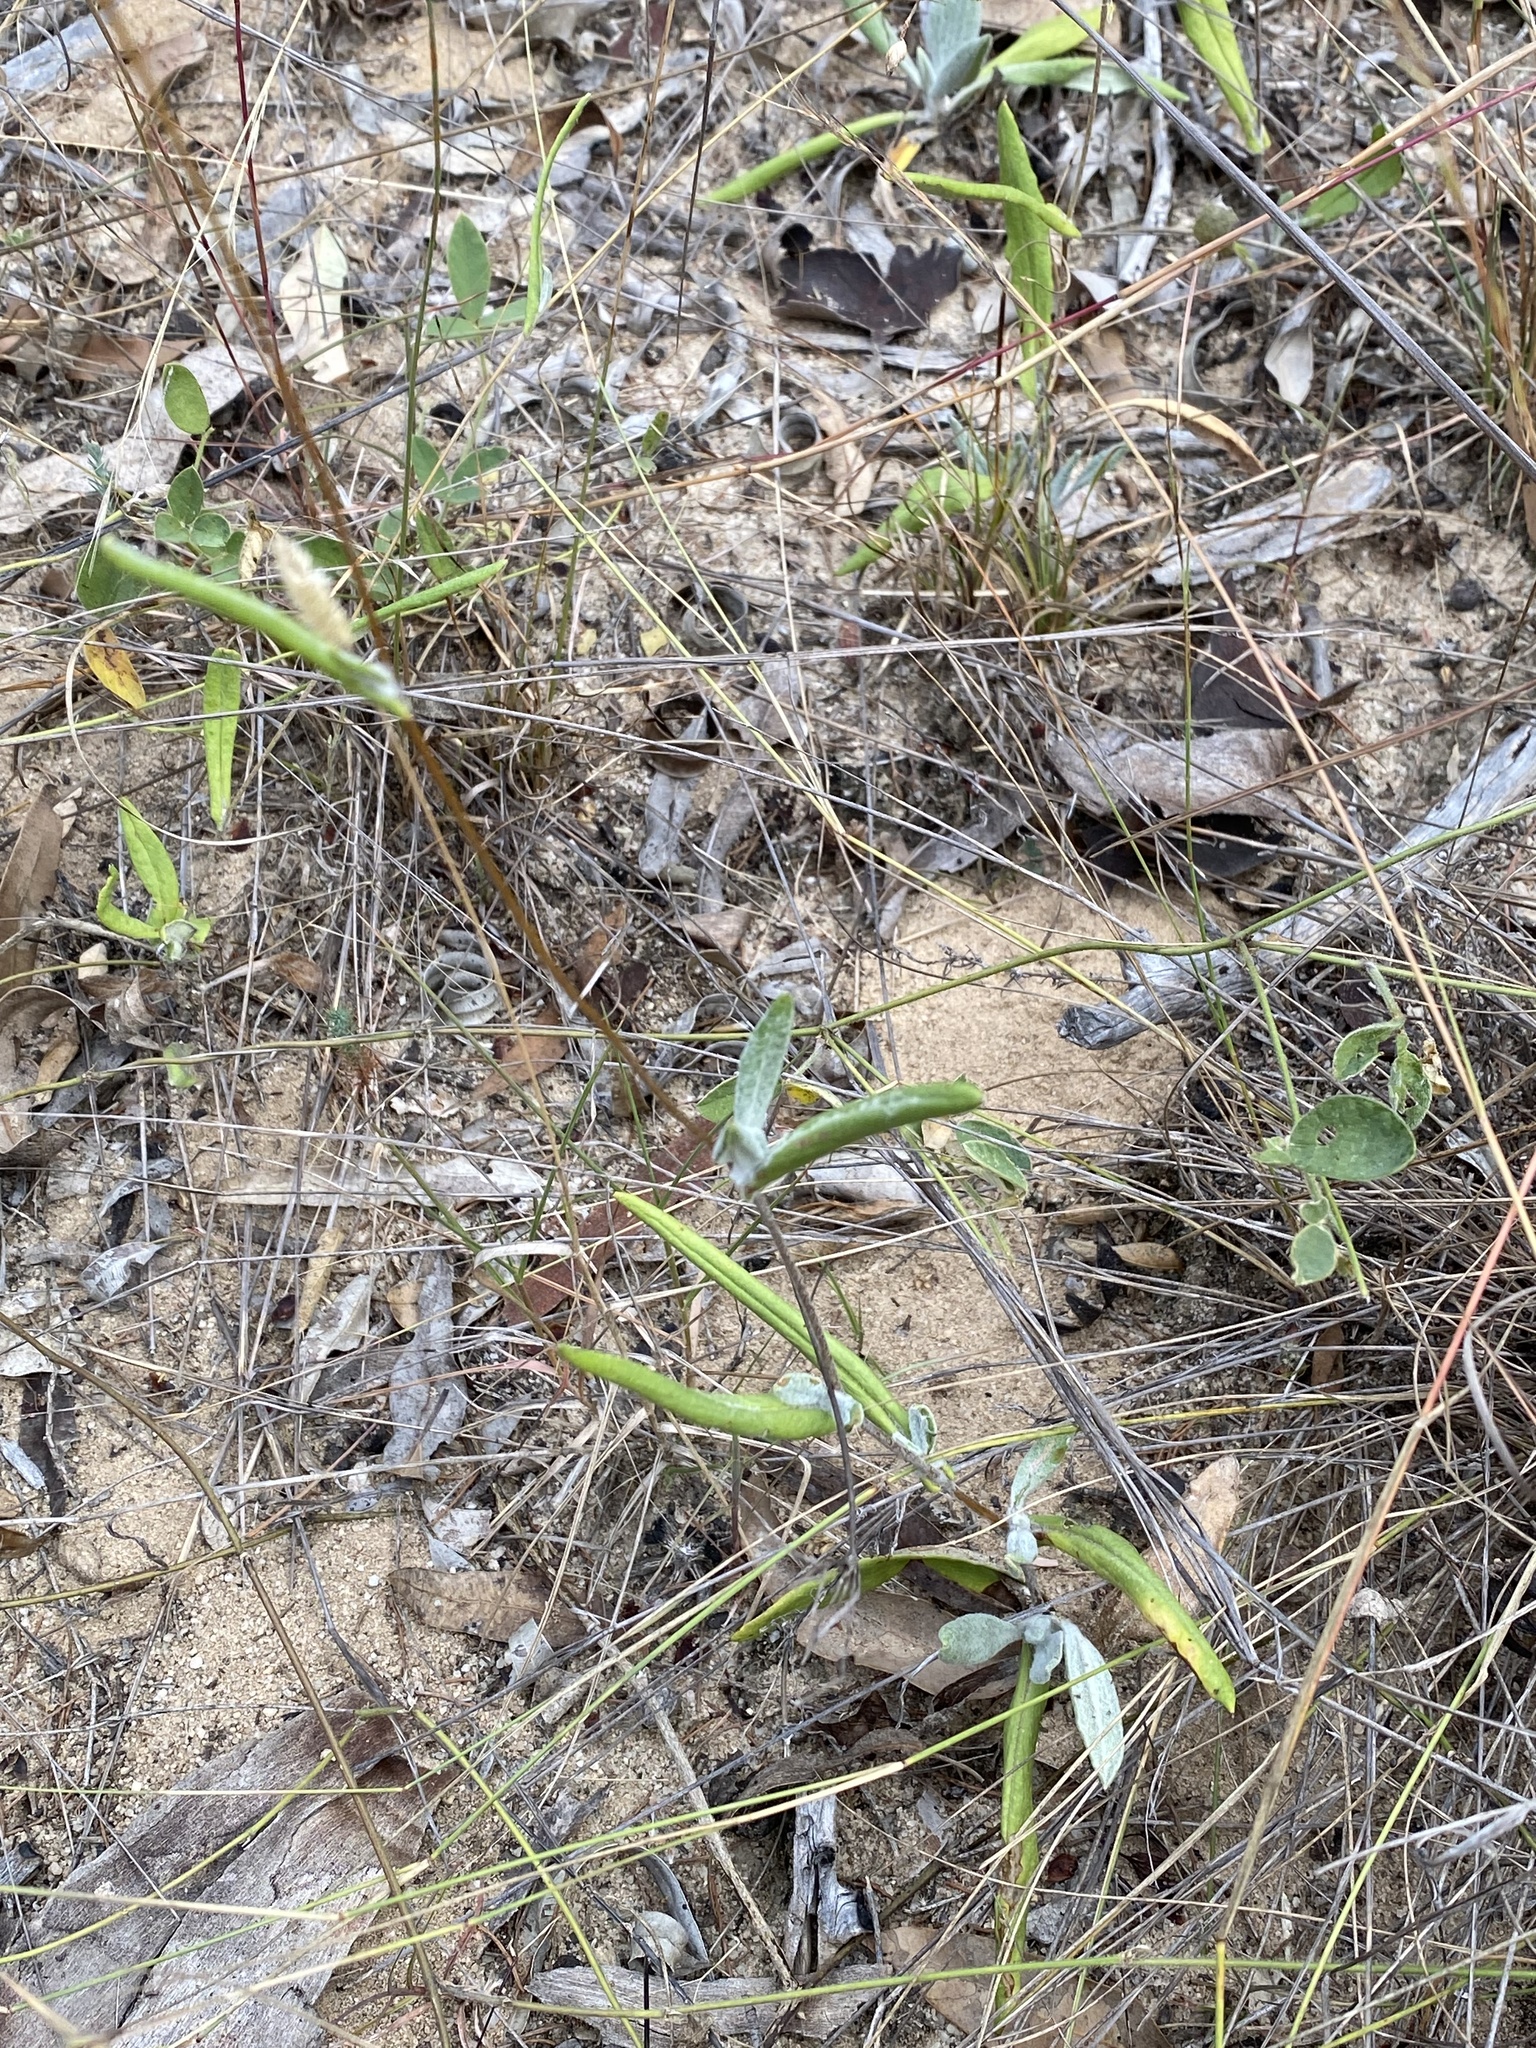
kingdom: Plantae
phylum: Tracheophyta
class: Magnoliopsida
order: Asterales
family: Asteraceae
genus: Podolepis
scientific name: Podolepis arachnoidea
